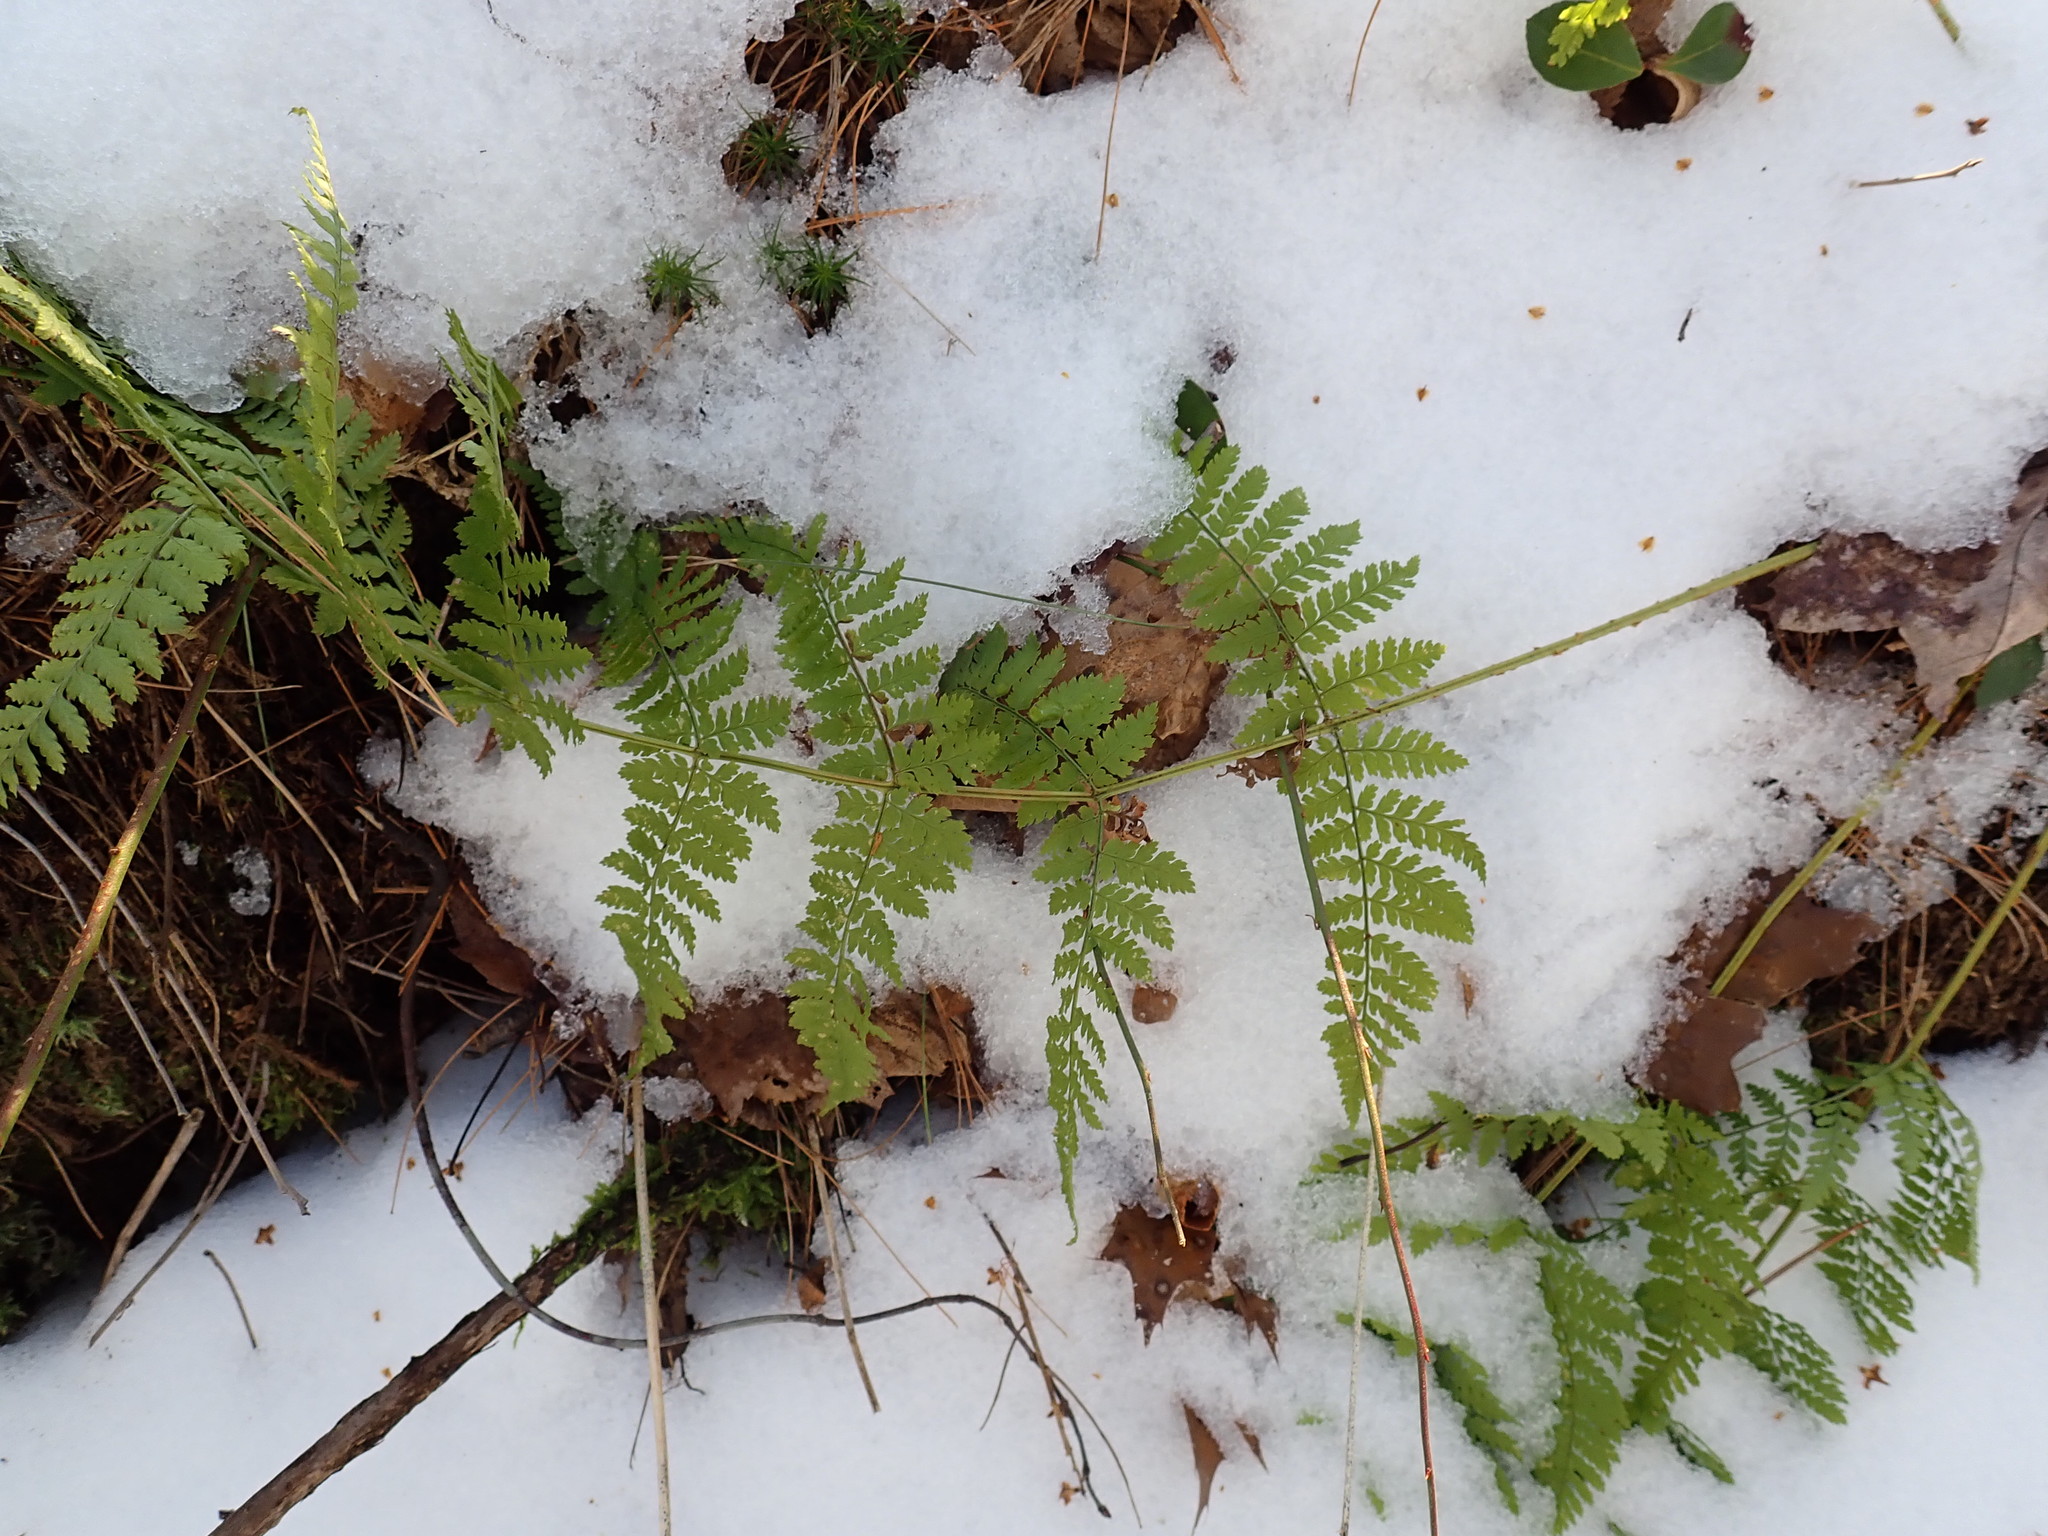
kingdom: Plantae
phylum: Tracheophyta
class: Polypodiopsida
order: Polypodiales
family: Dryopteridaceae
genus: Dryopteris
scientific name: Dryopteris intermedia
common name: Evergreen wood fern
